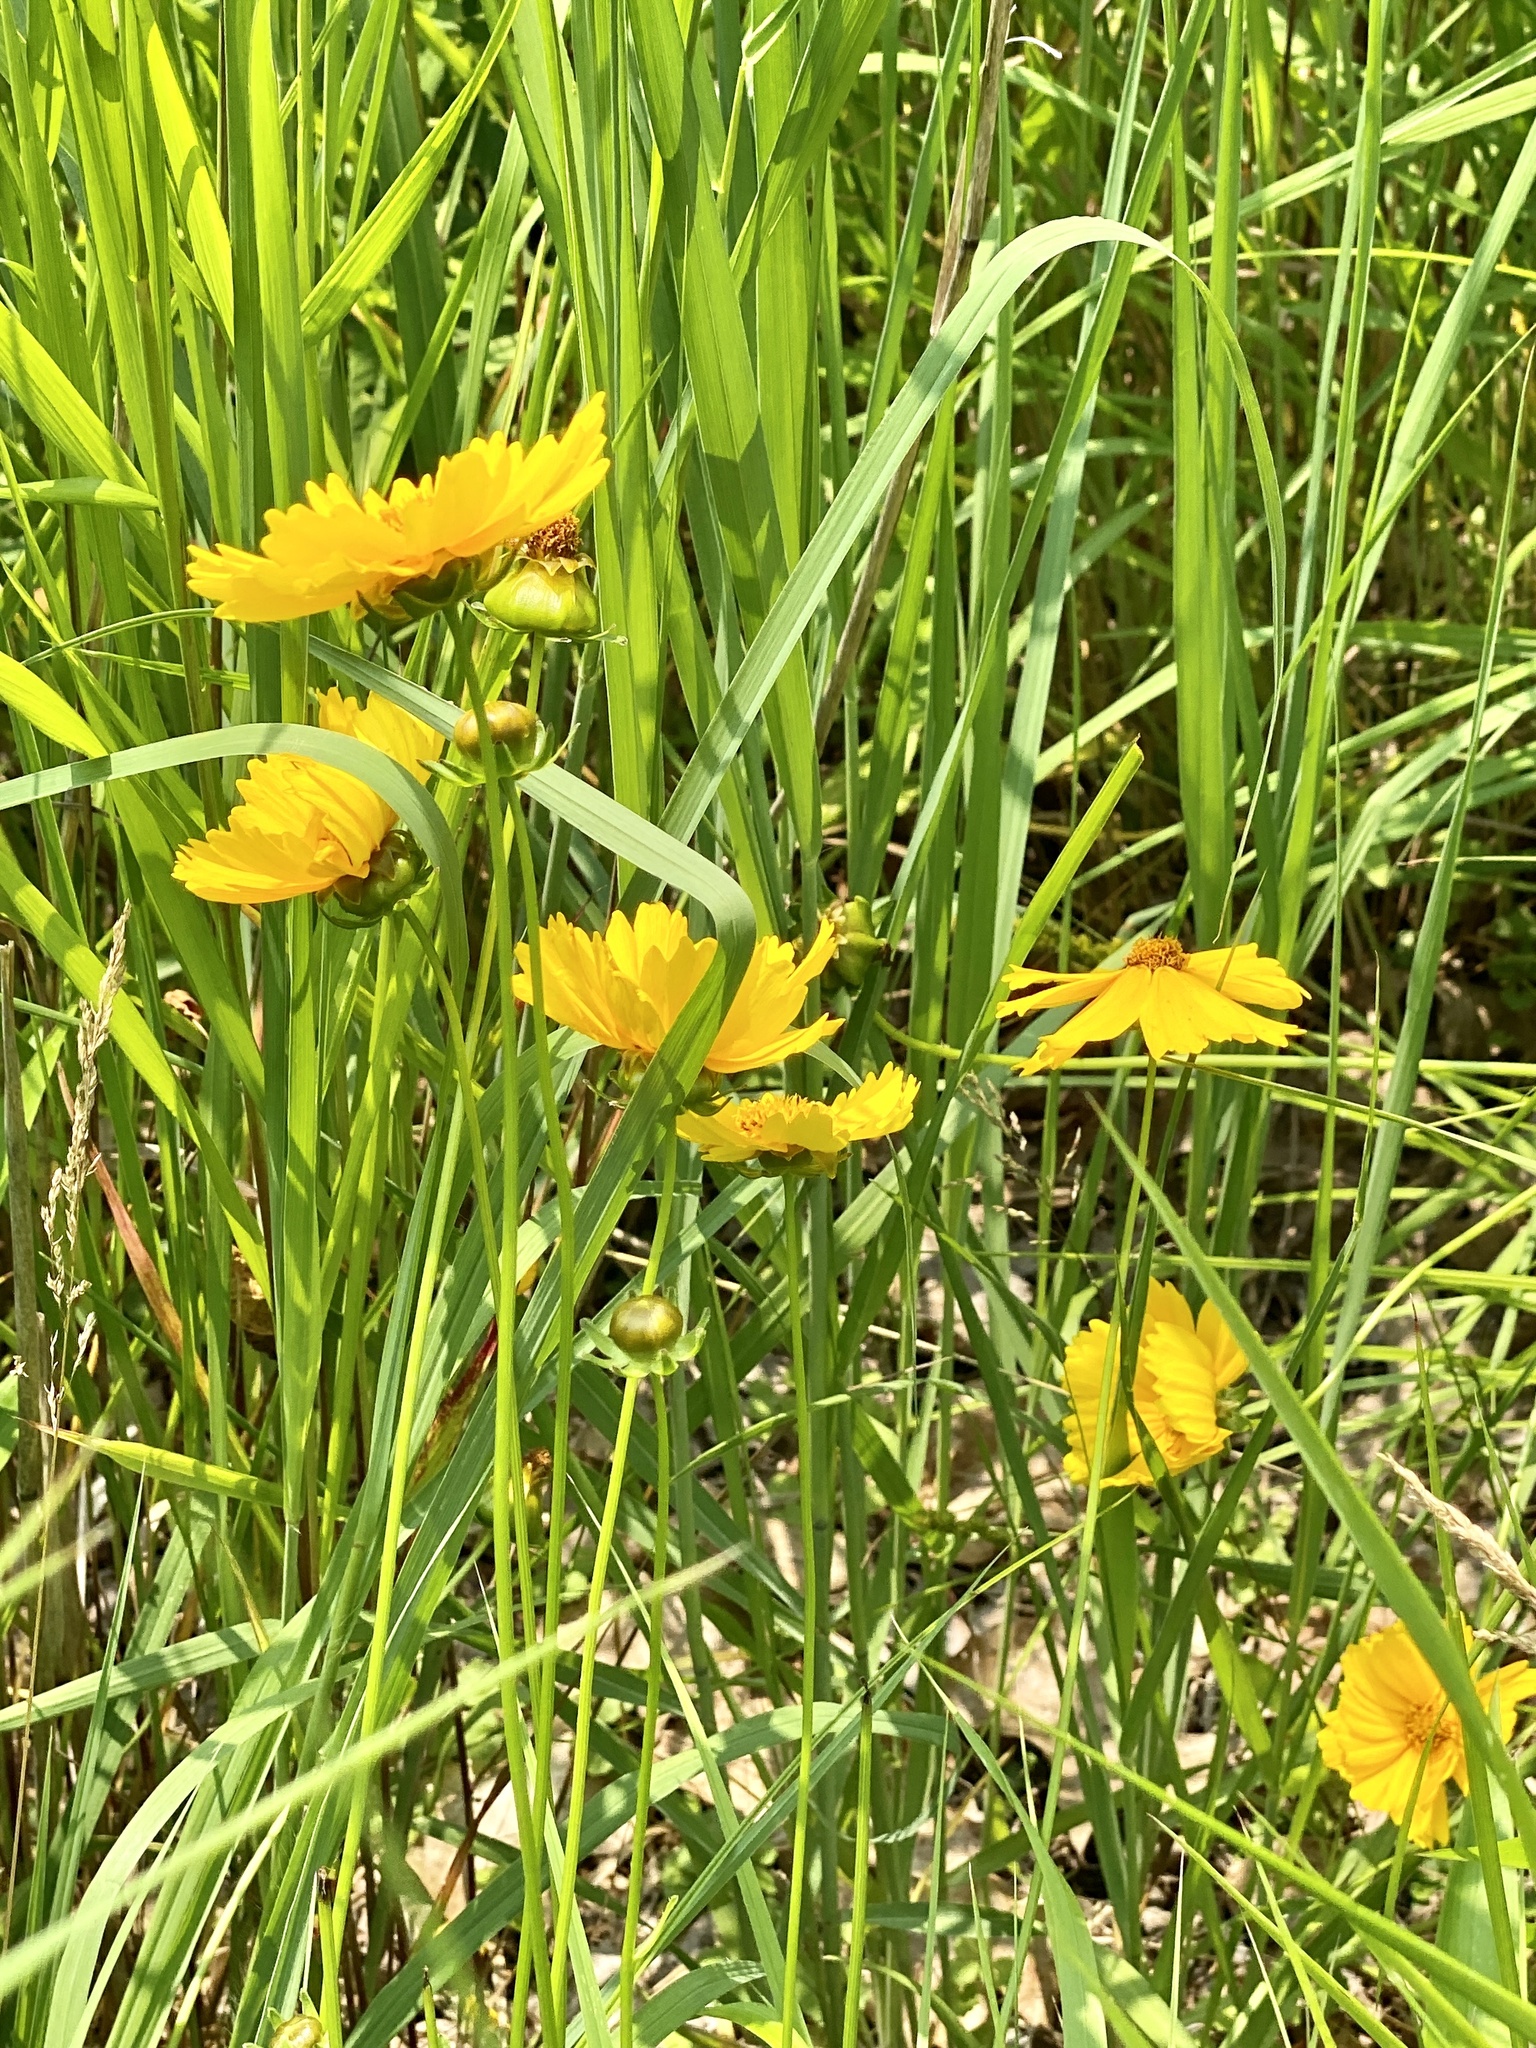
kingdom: Plantae
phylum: Tracheophyta
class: Magnoliopsida
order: Asterales
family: Asteraceae
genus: Coreopsis
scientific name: Coreopsis lanceolata
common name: Garden coreopsis
